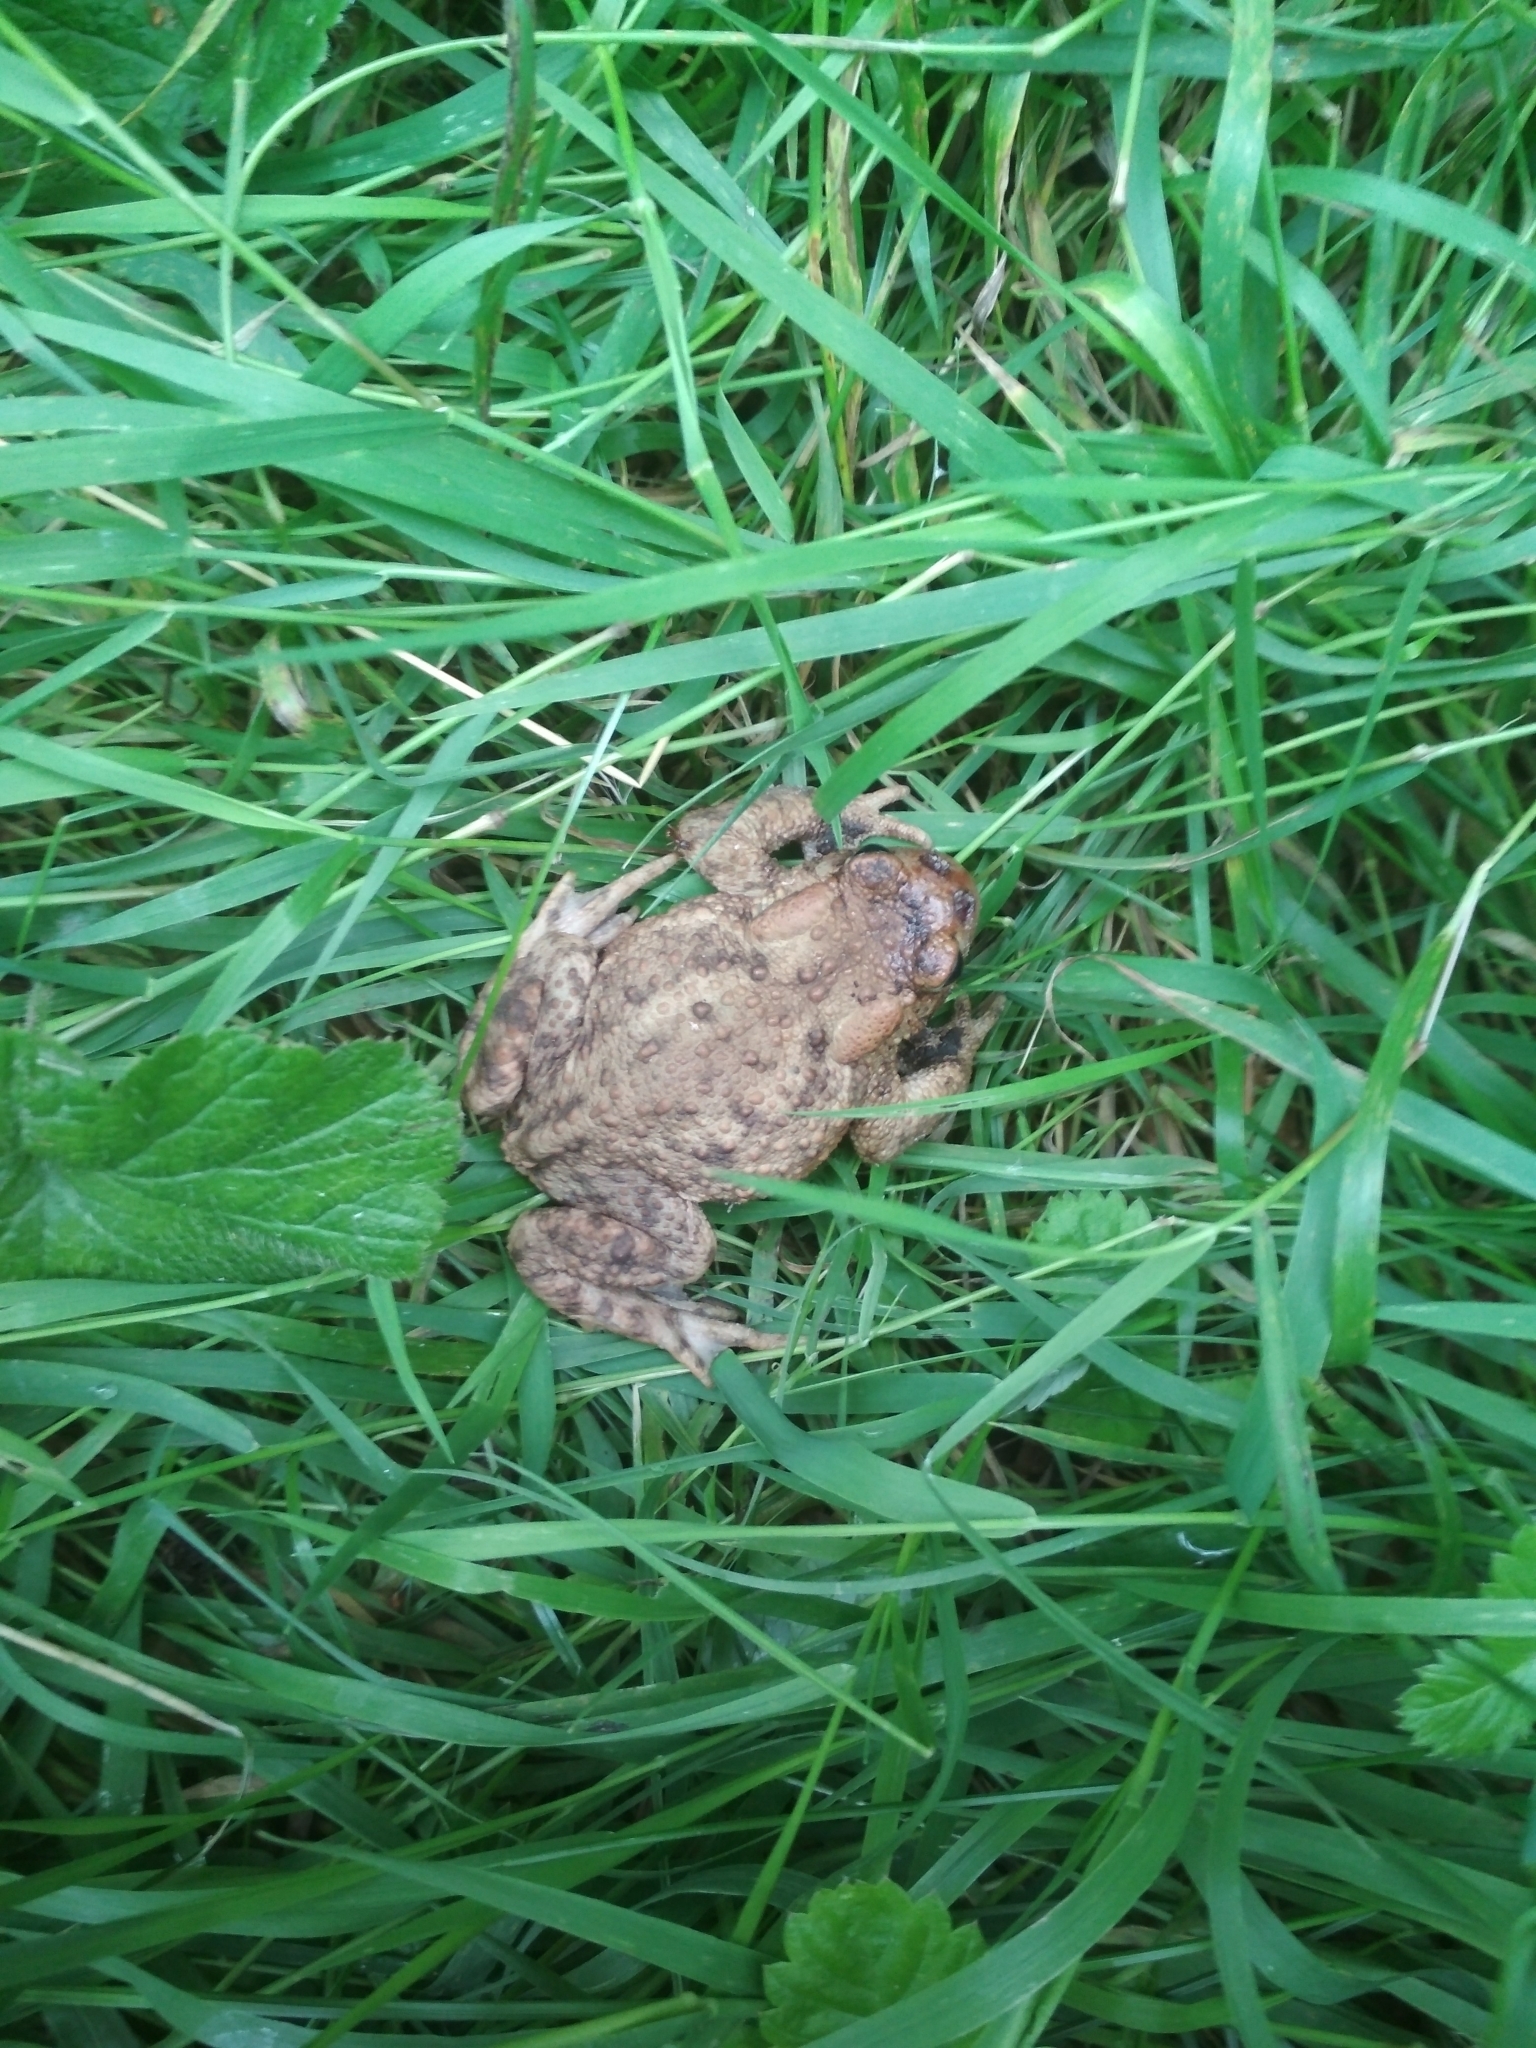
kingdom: Animalia
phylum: Chordata
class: Amphibia
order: Anura
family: Bufonidae
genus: Bufo
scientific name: Bufo bufo
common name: Common toad
